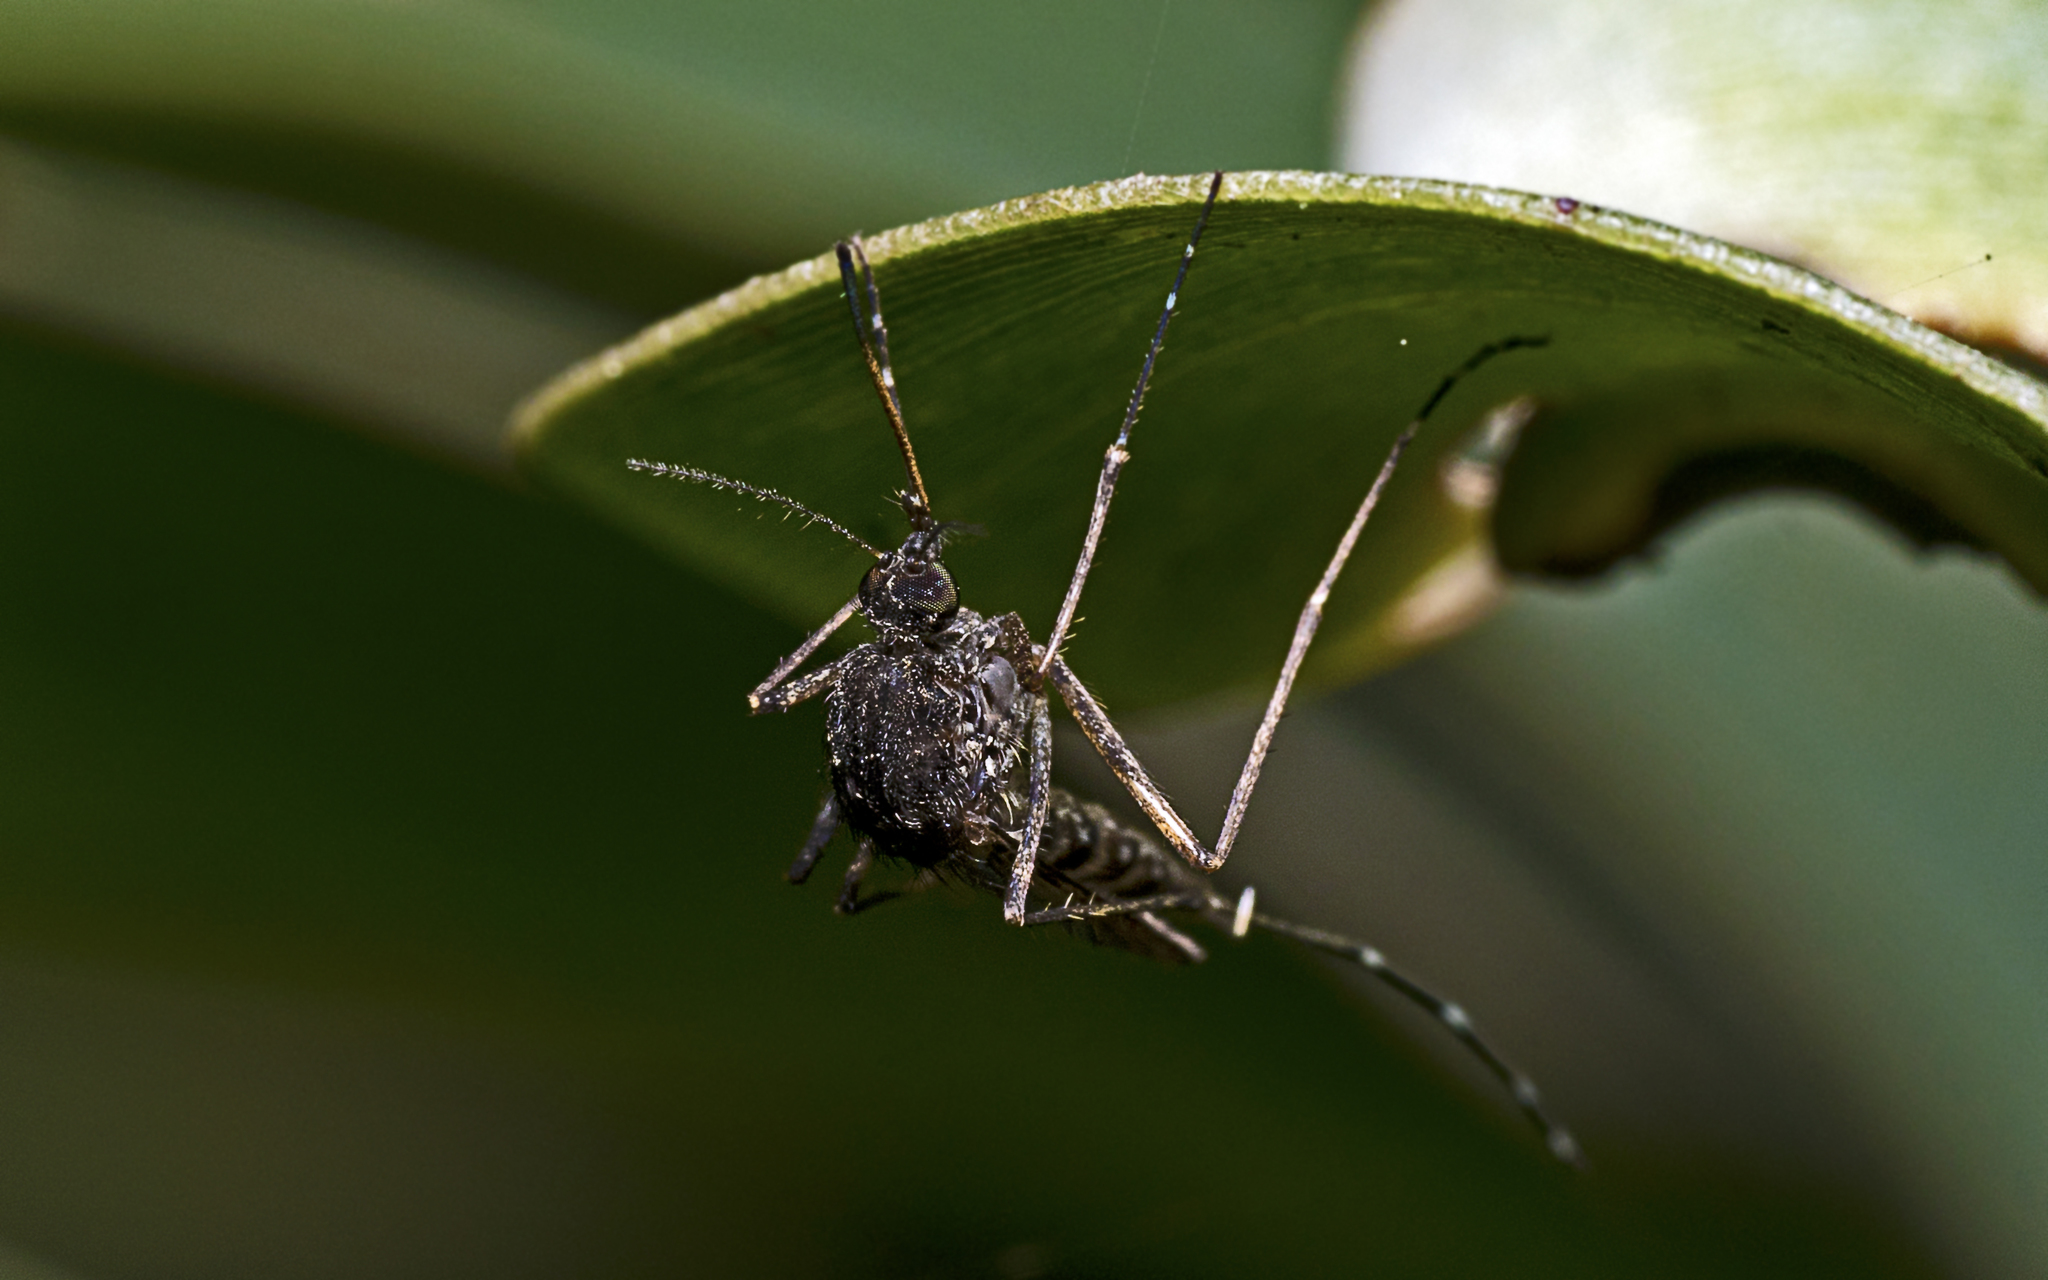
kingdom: Animalia
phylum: Arthropoda
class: Insecta
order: Diptera
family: Culicidae
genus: Aedes
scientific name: Aedes vigilax
